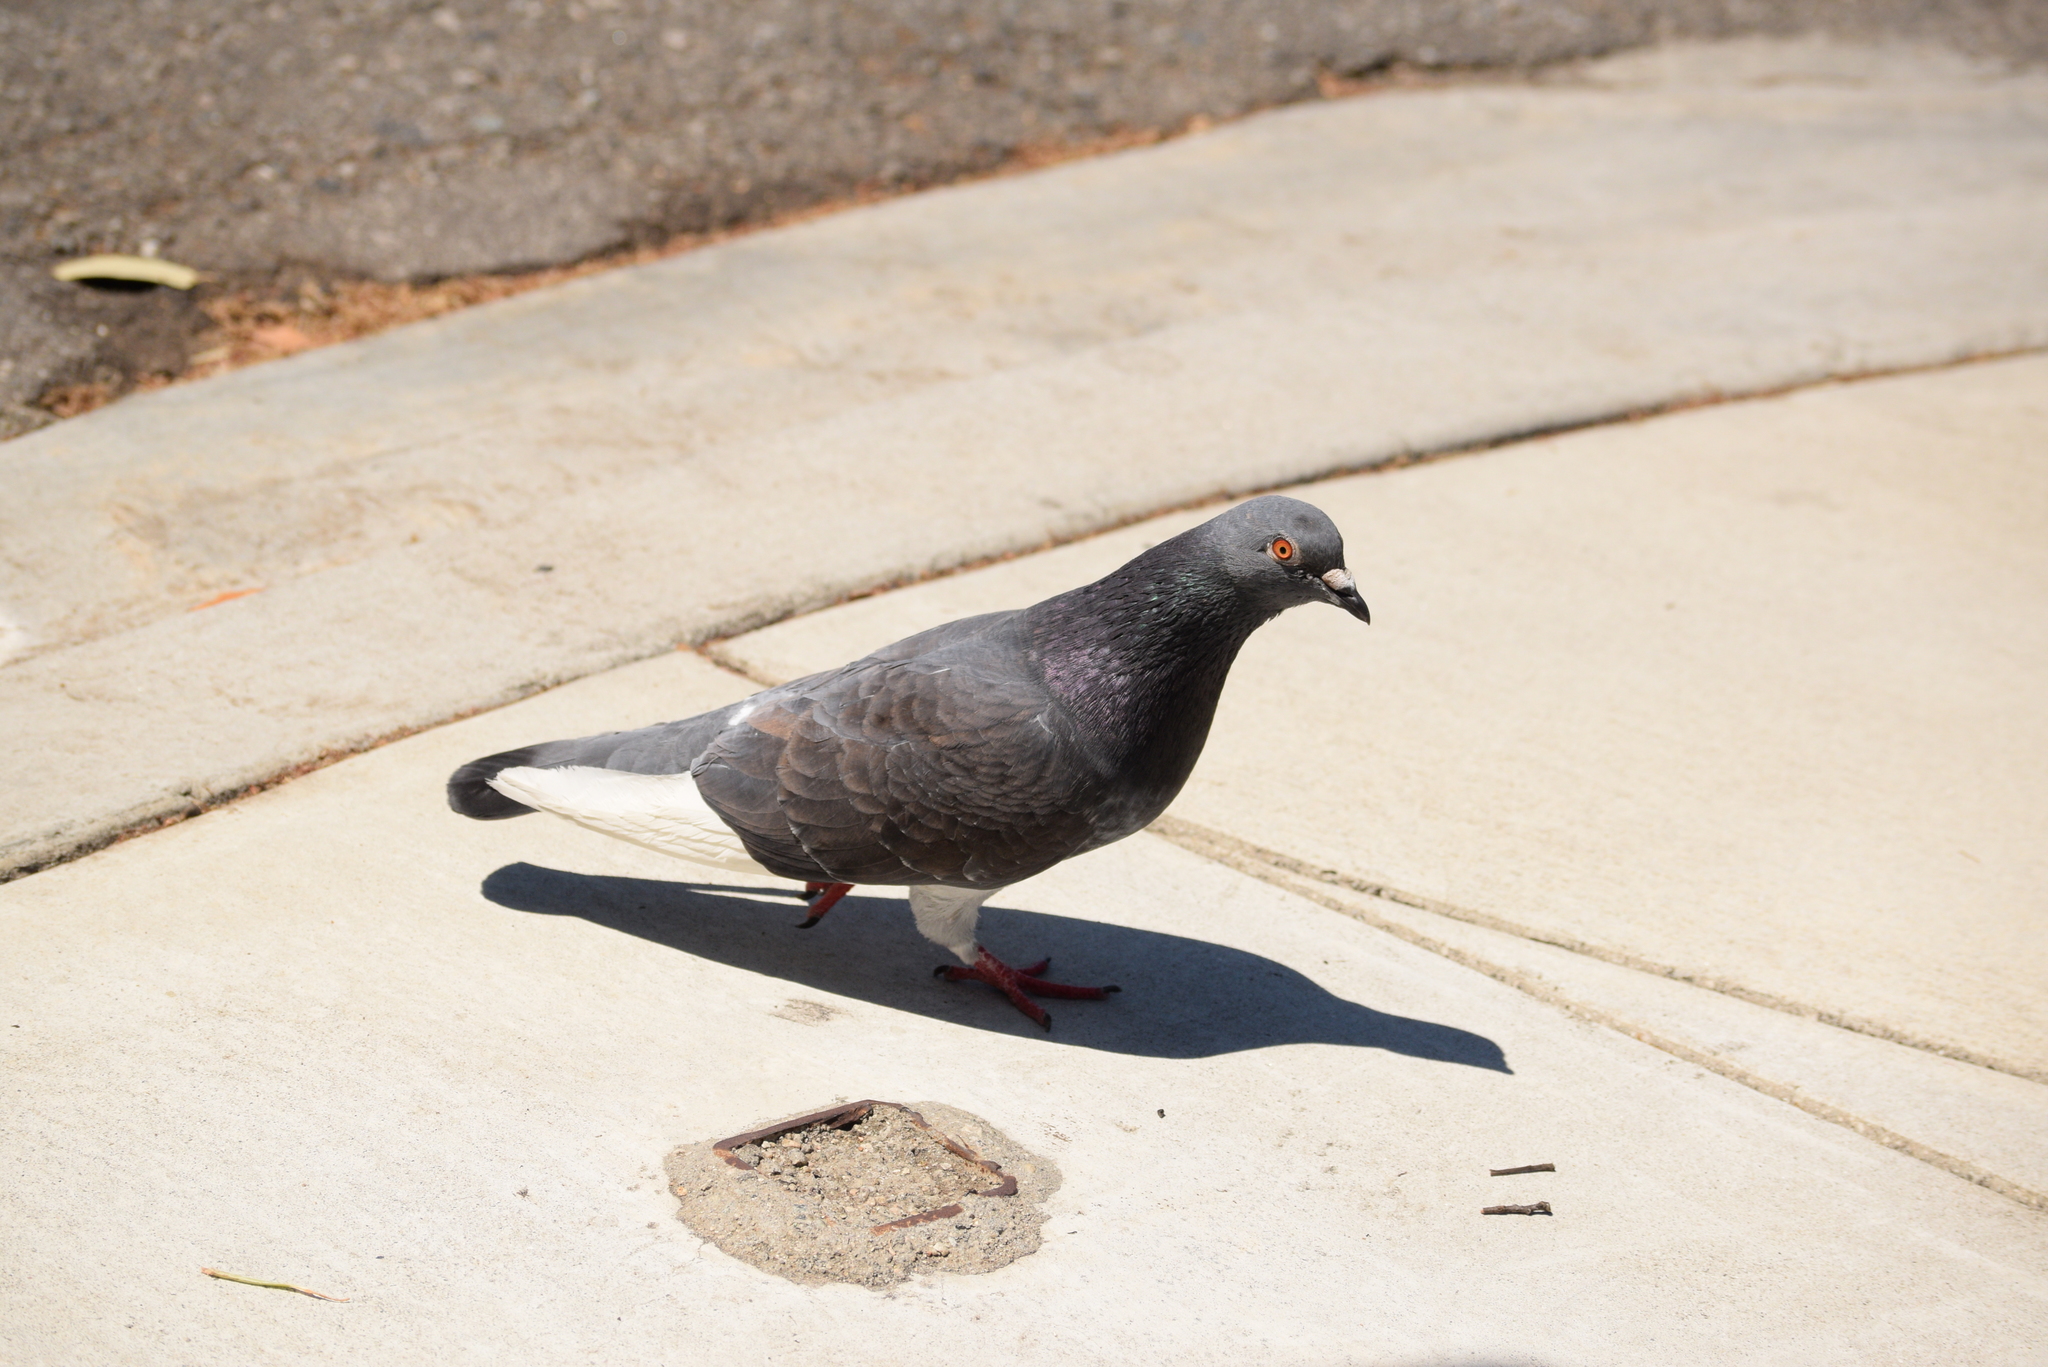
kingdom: Animalia
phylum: Chordata
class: Aves
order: Columbiformes
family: Columbidae
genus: Columba
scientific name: Columba livia
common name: Rock pigeon
